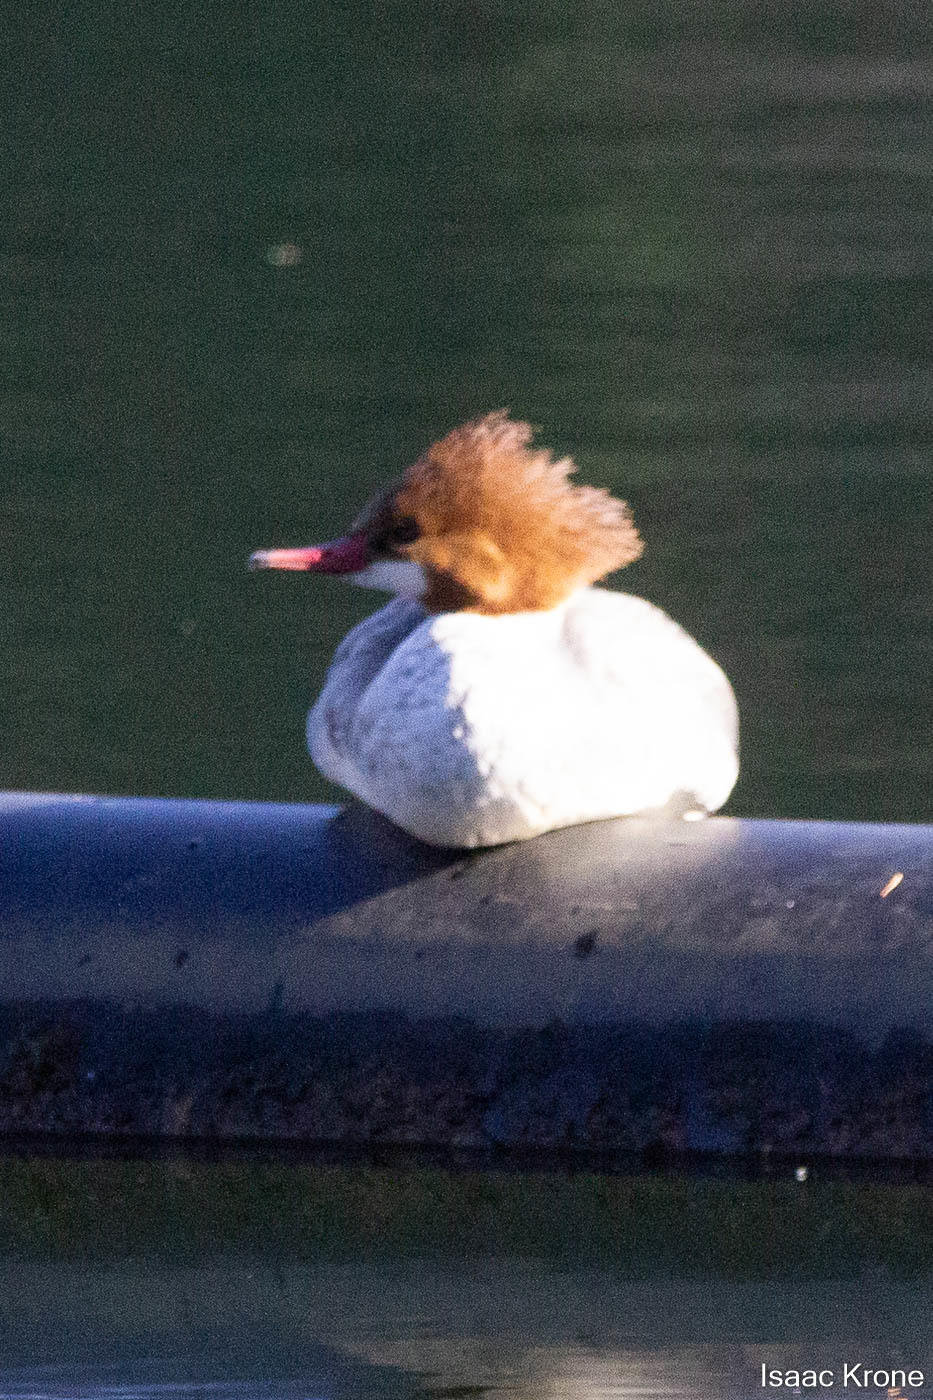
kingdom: Animalia
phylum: Chordata
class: Aves
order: Anseriformes
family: Anatidae
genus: Mergus
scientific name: Mergus merganser
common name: Common merganser
